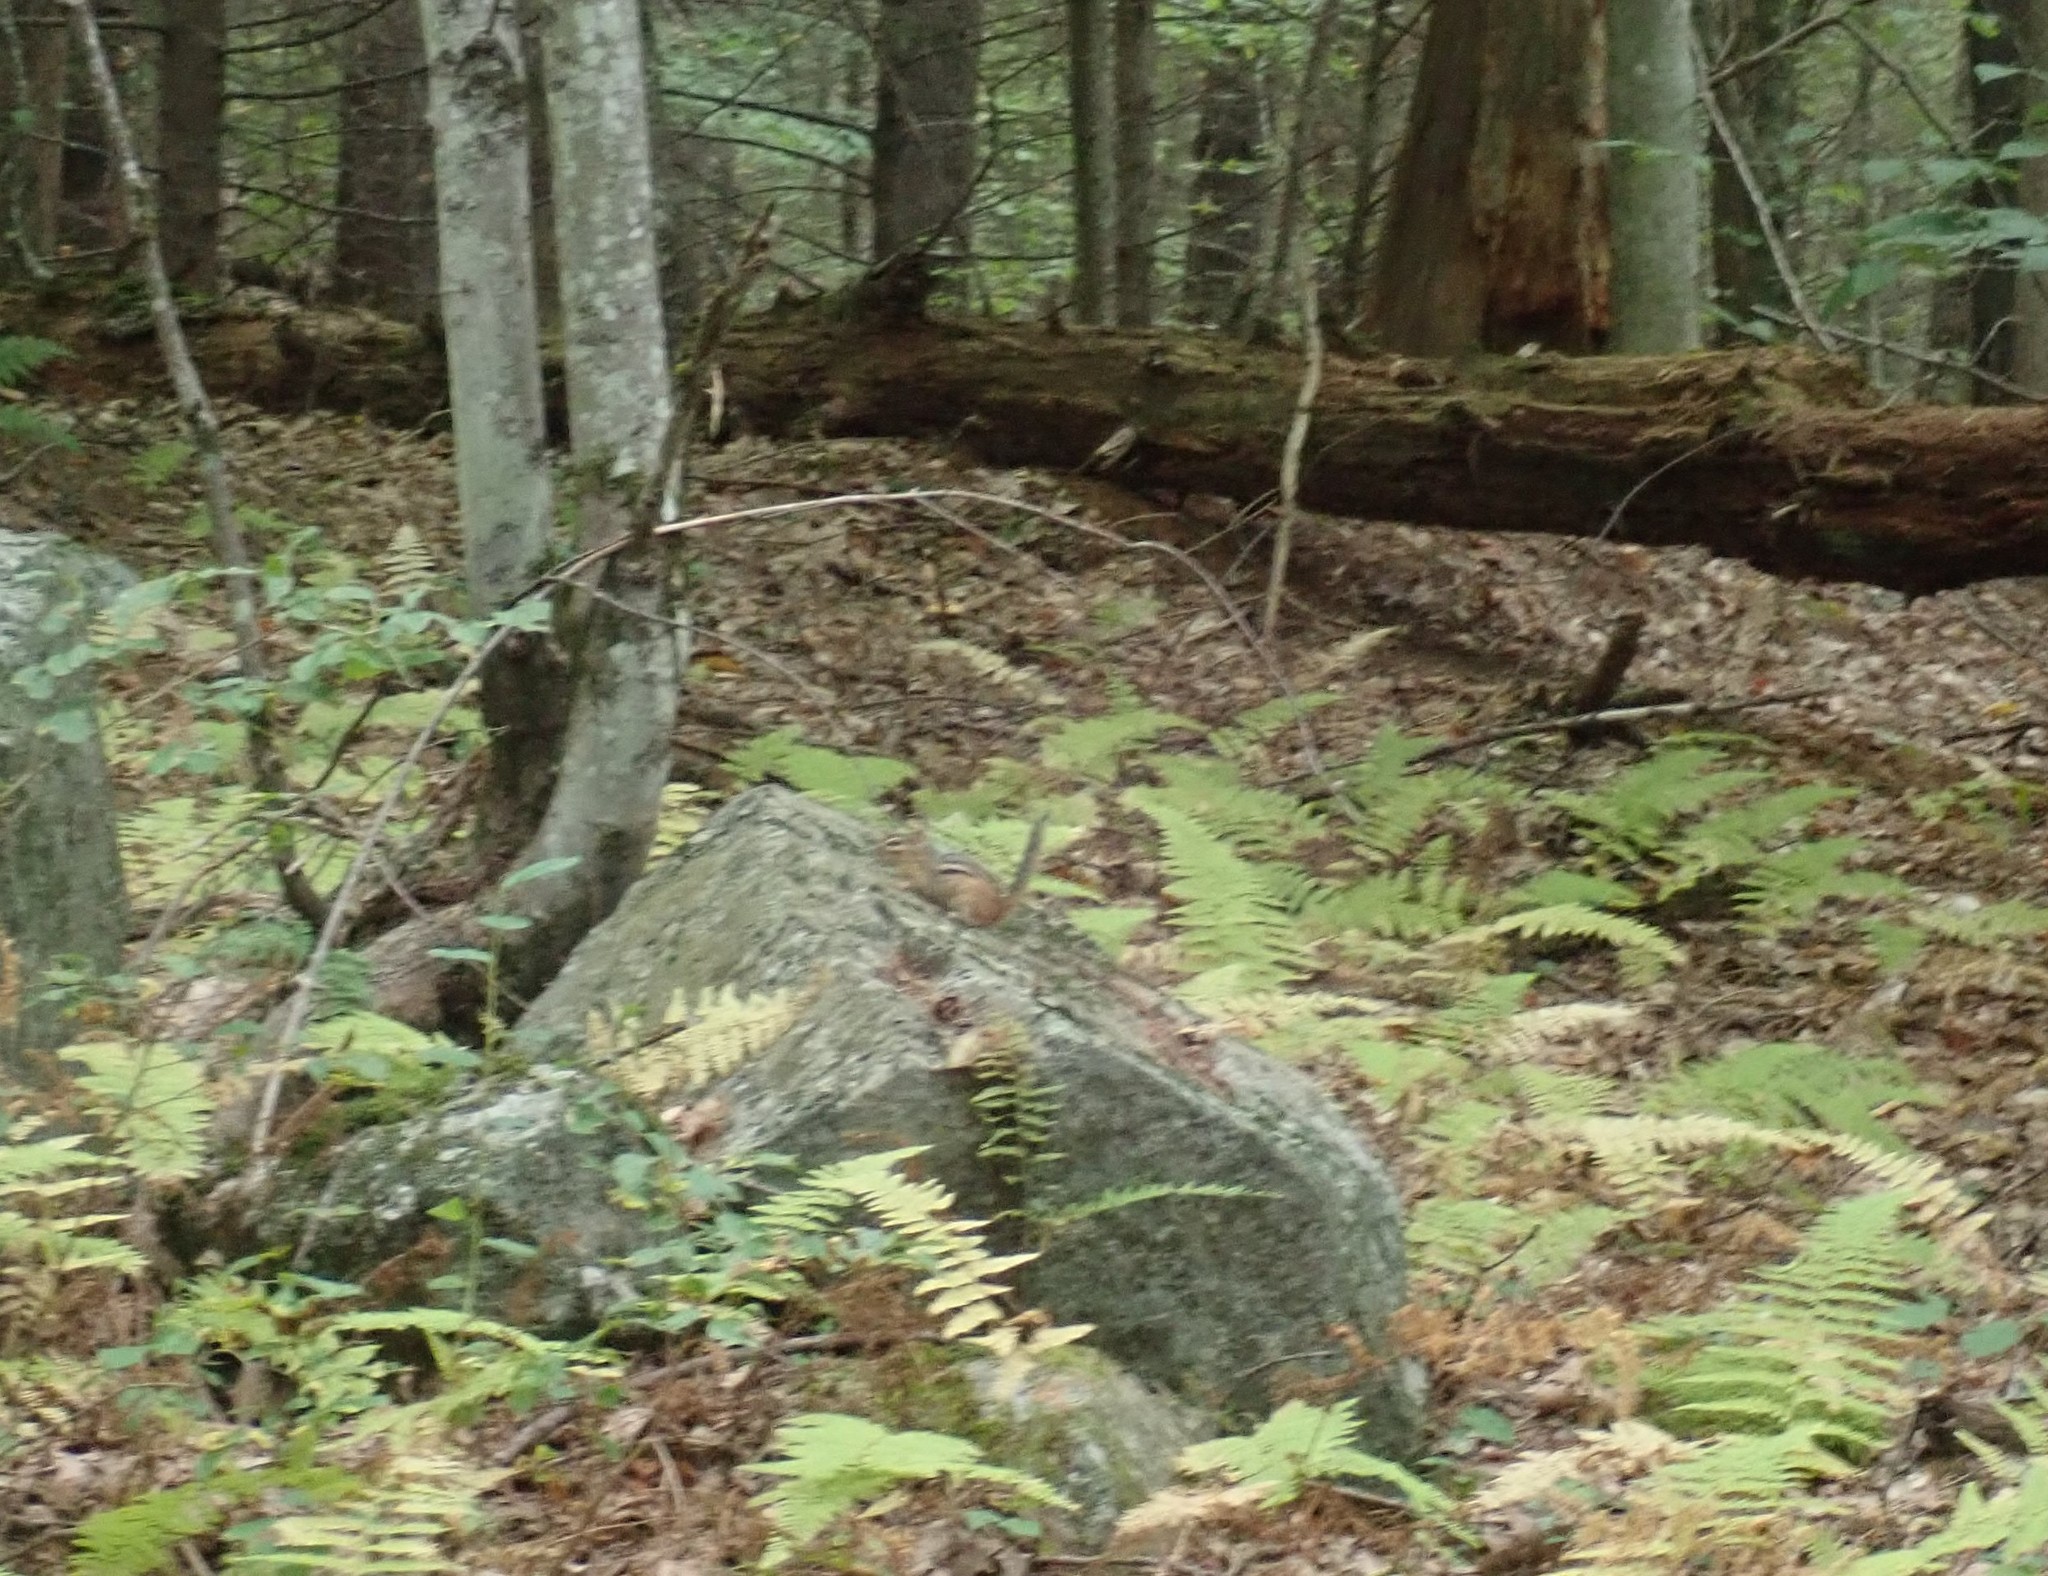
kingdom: Animalia
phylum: Chordata
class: Mammalia
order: Rodentia
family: Sciuridae
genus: Tamias
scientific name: Tamias striatus
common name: Eastern chipmunk
